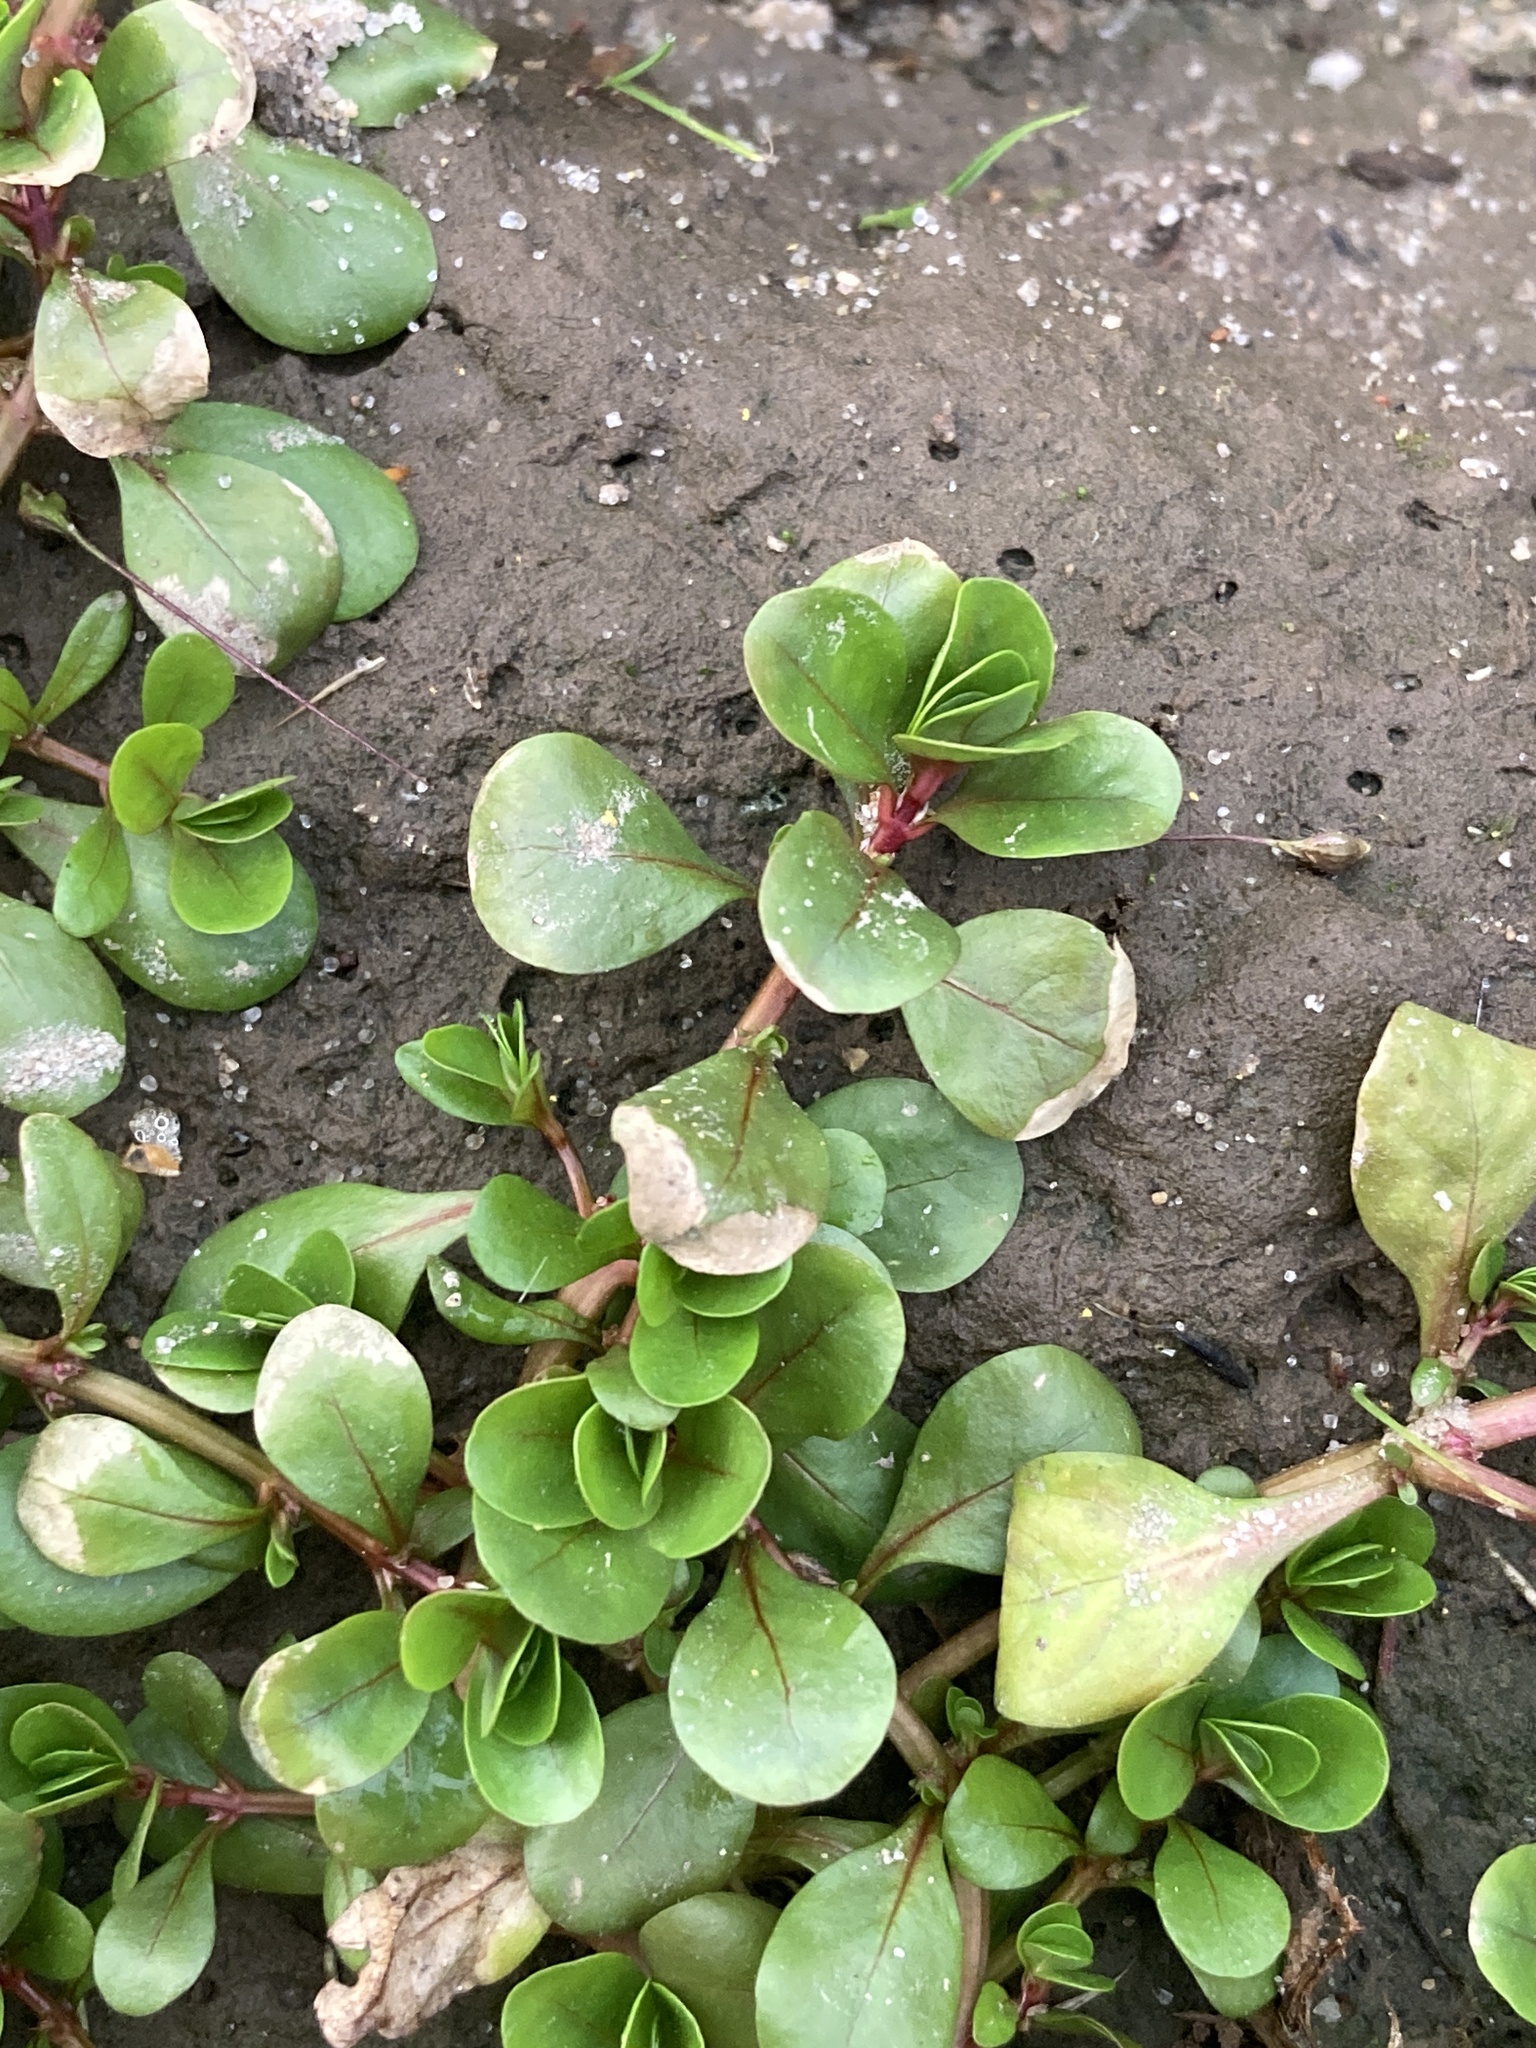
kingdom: Plantae
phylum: Tracheophyta
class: Magnoliopsida
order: Myrtales
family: Lythraceae
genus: Lythrum
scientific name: Lythrum portula
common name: Water purslane
